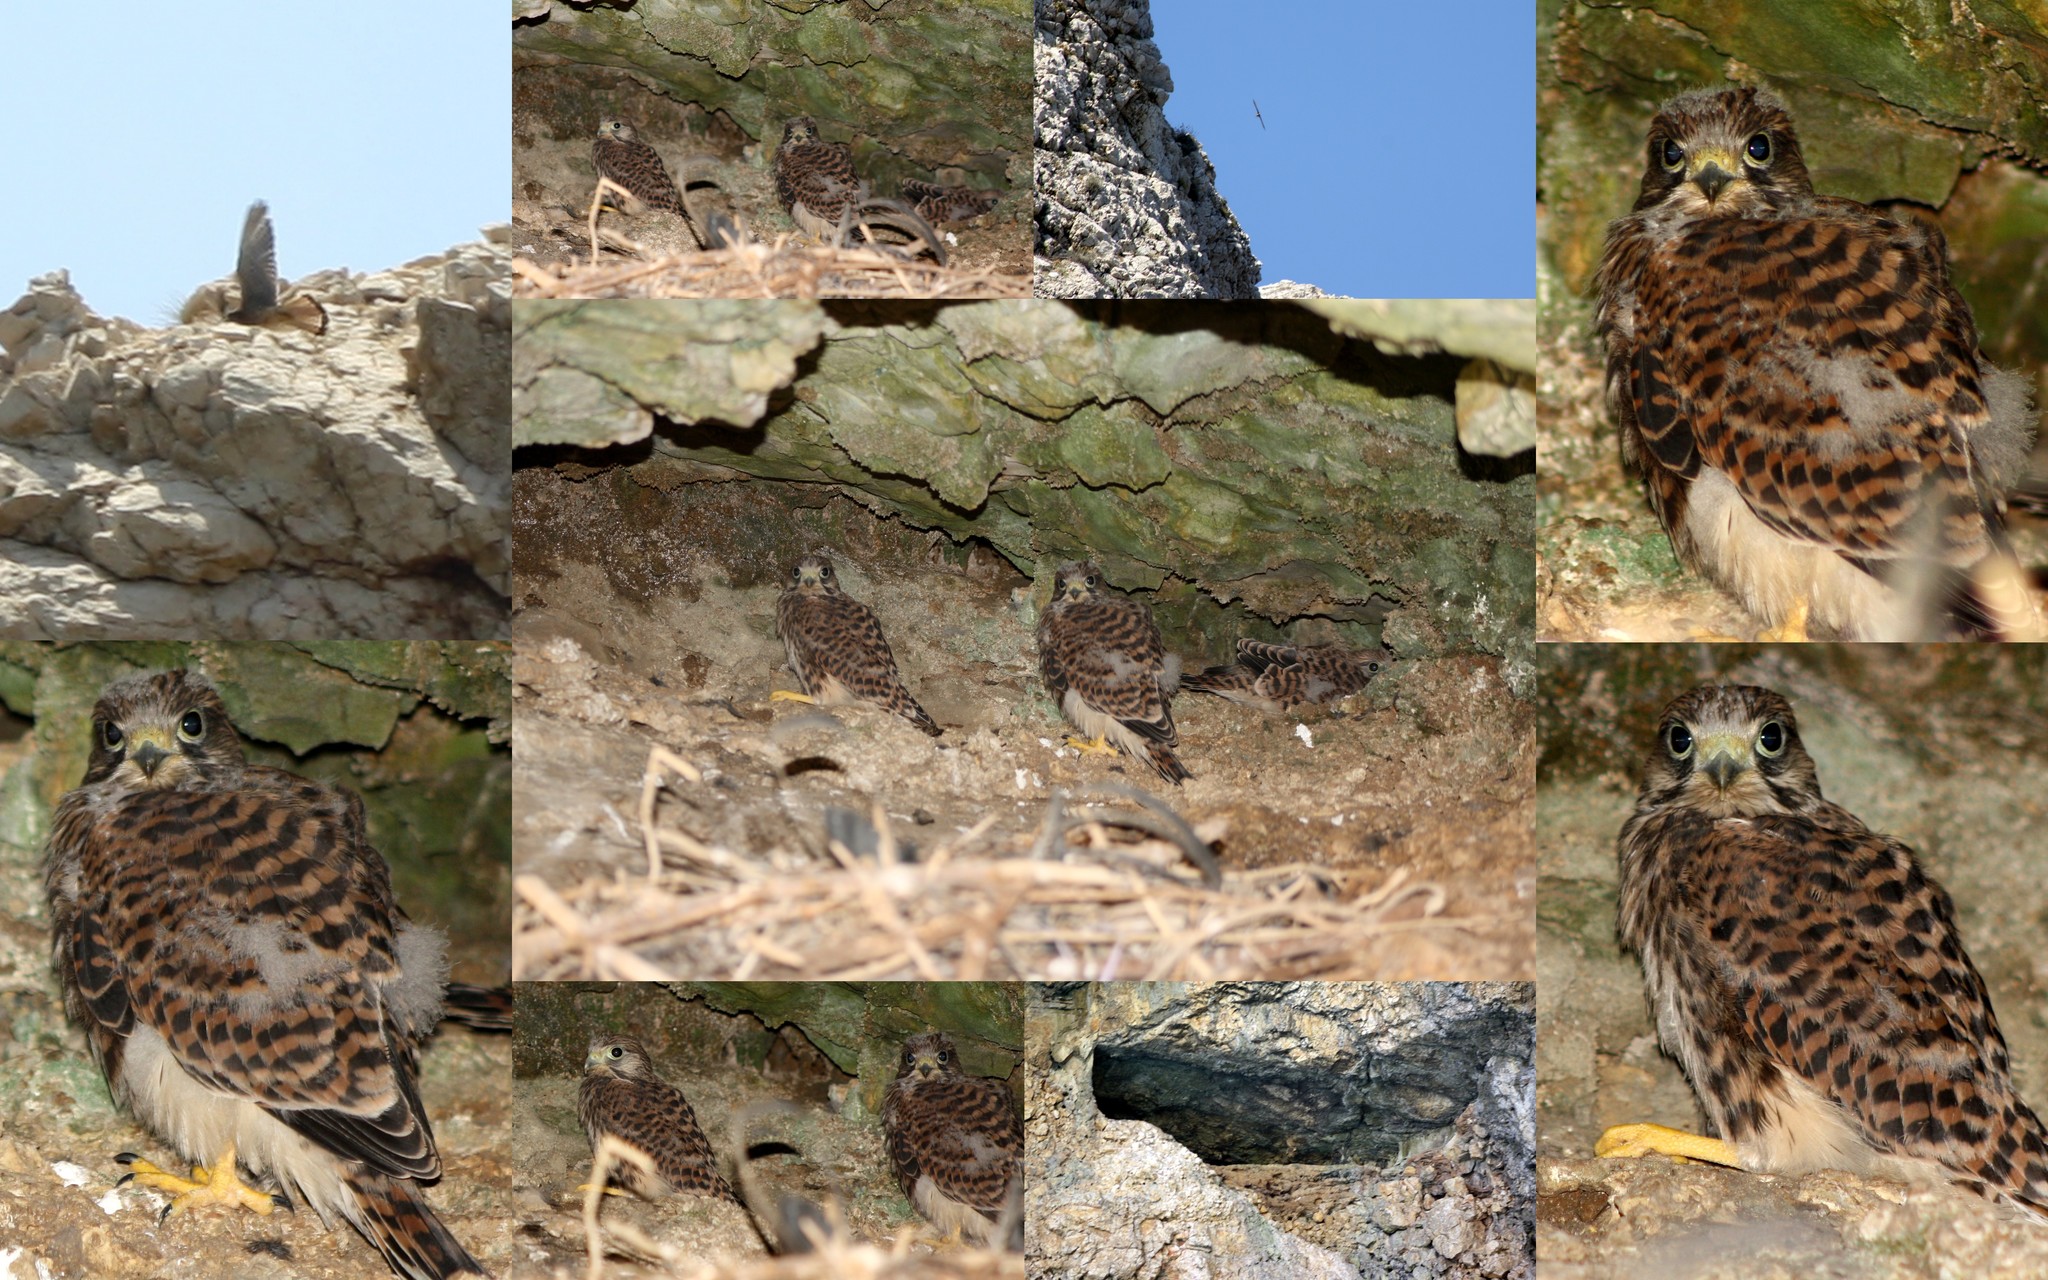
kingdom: Animalia
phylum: Chordata
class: Aves
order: Falconiformes
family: Falconidae
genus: Falco
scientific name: Falco tinnunculus
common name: Common kestrel
